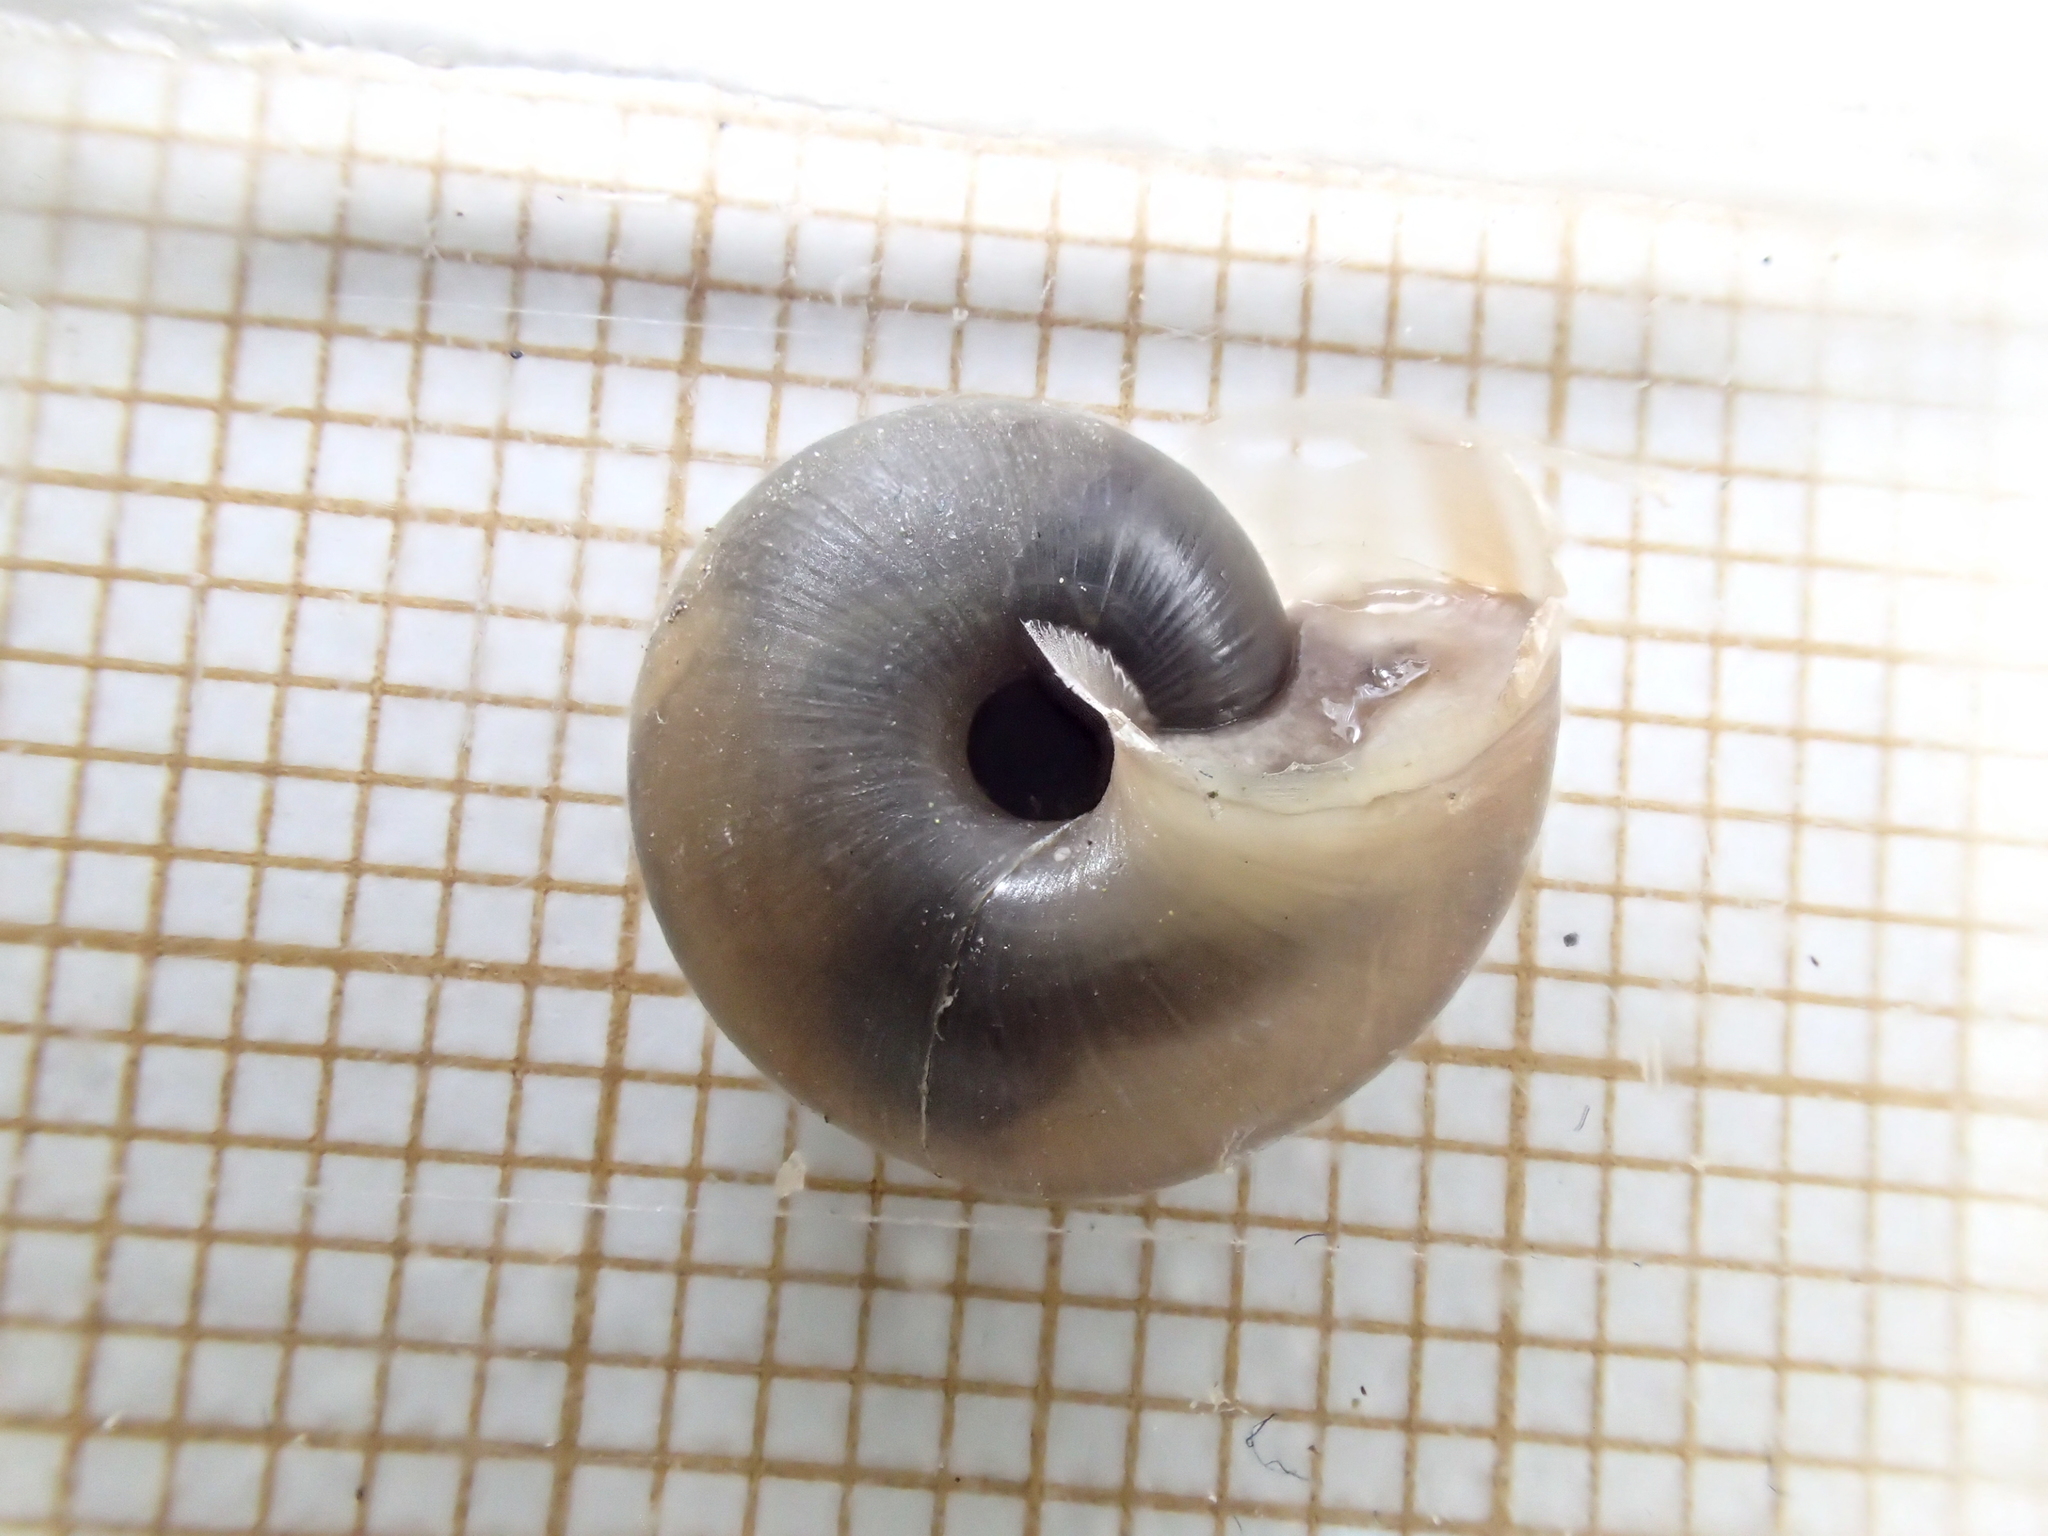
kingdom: Animalia
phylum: Mollusca
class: Gastropoda
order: Stylommatophora
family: Helicidae
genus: Corneola
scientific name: Corneola squamatina
